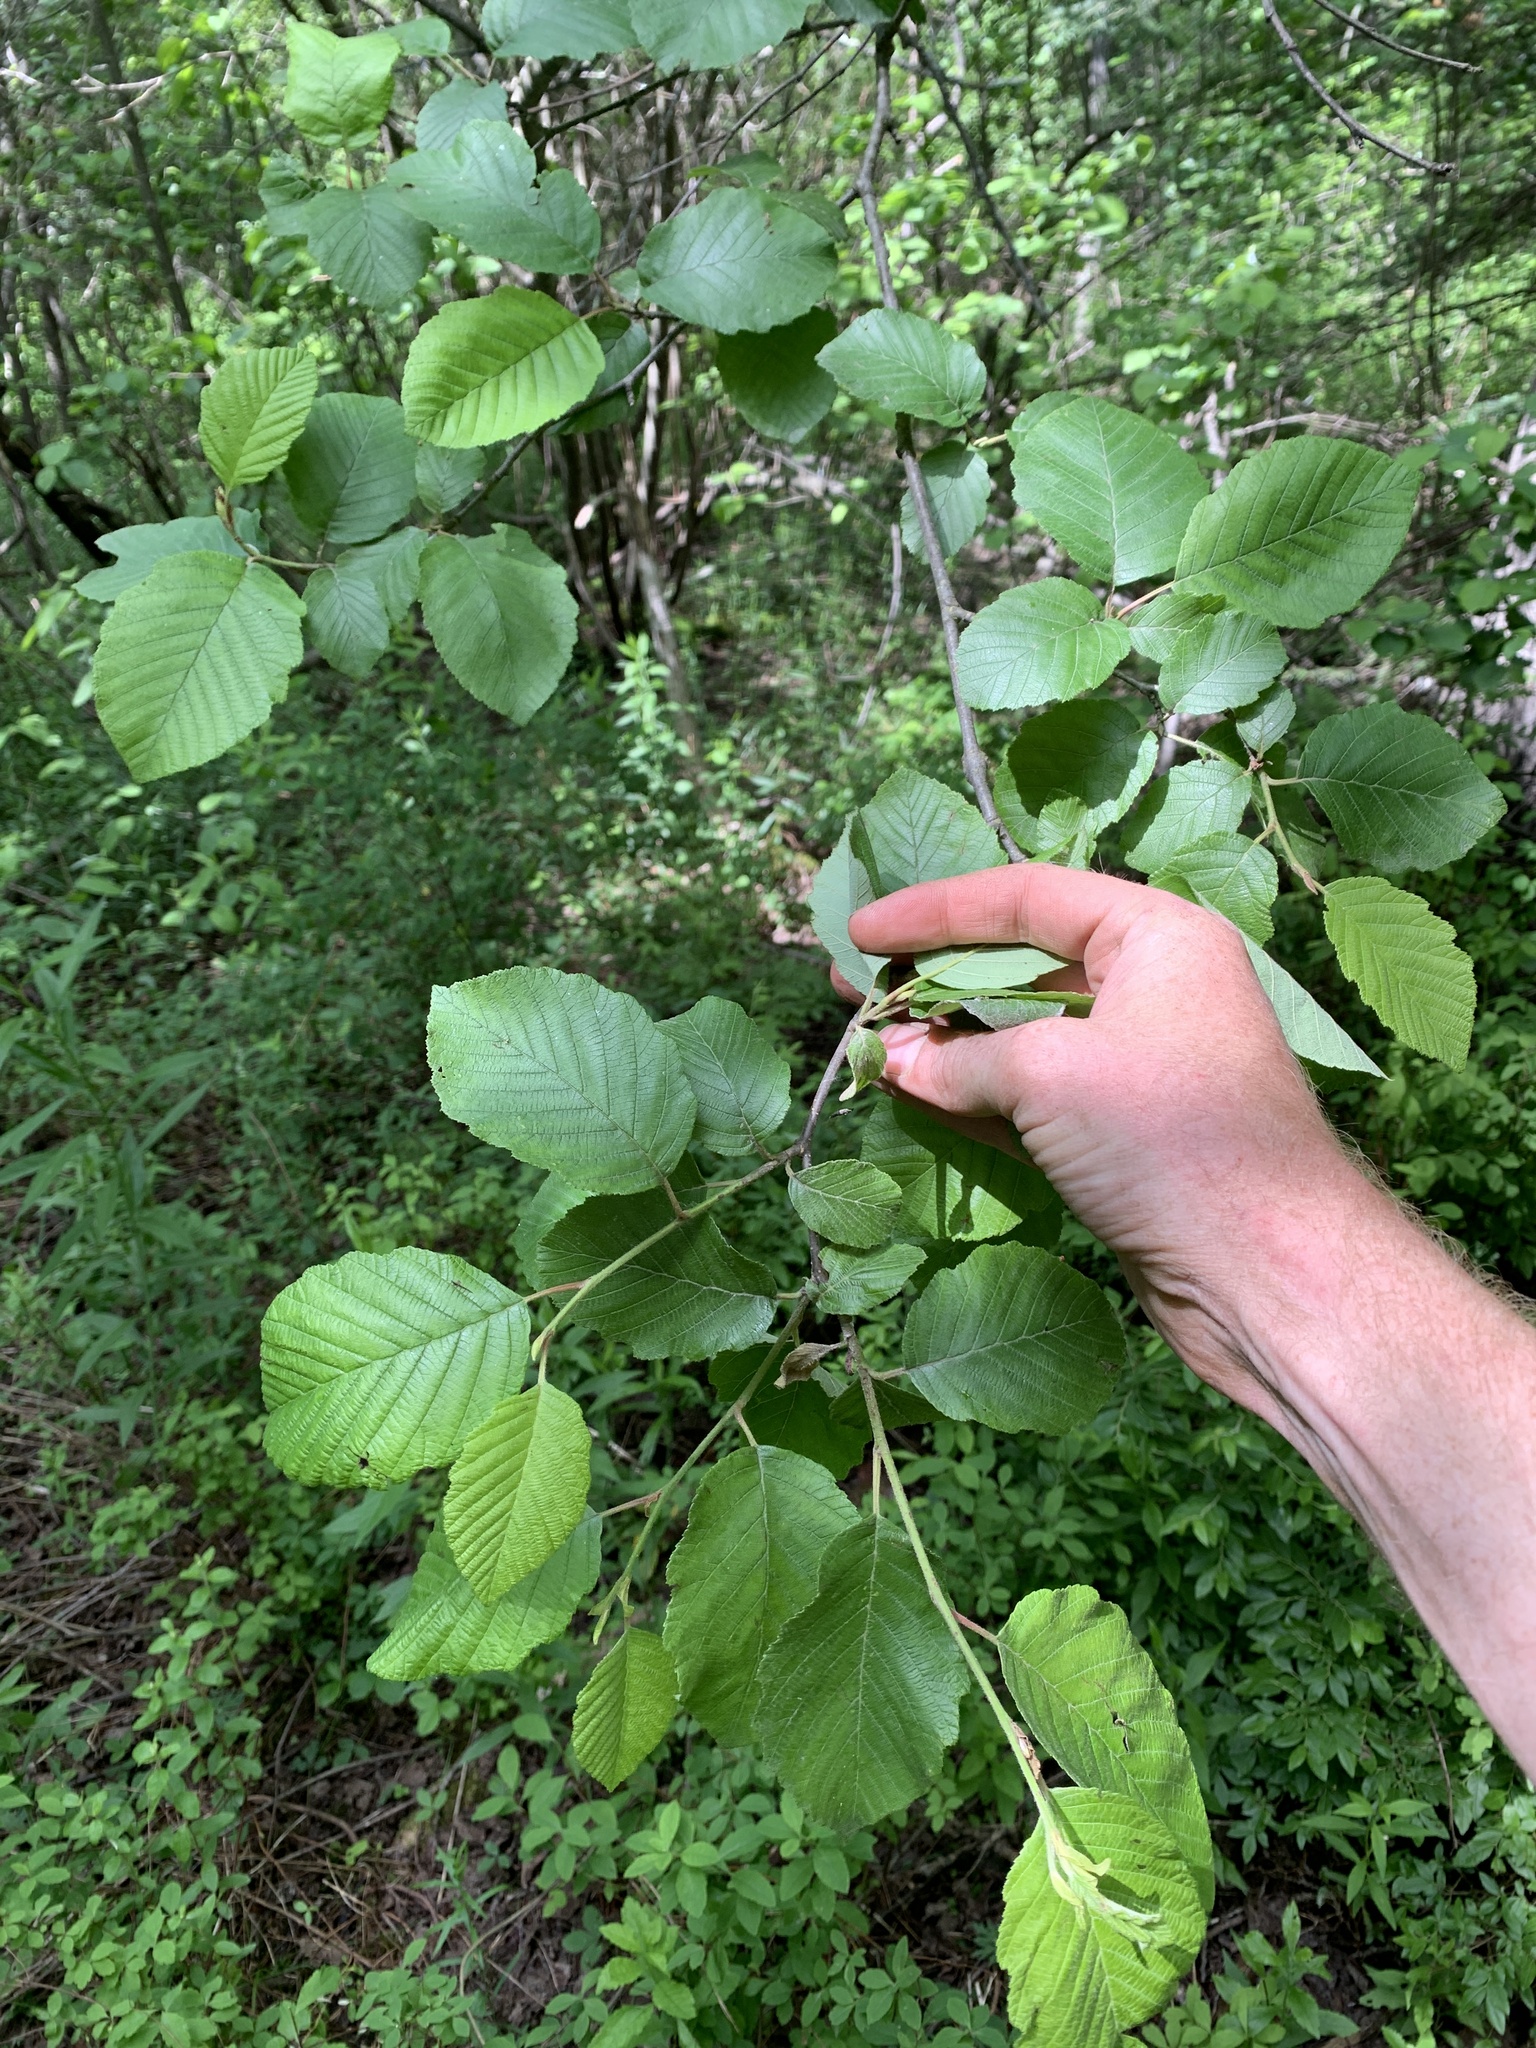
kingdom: Plantae
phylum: Tracheophyta
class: Magnoliopsida
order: Fagales
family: Betulaceae
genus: Alnus
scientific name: Alnus incana
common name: Grey alder
